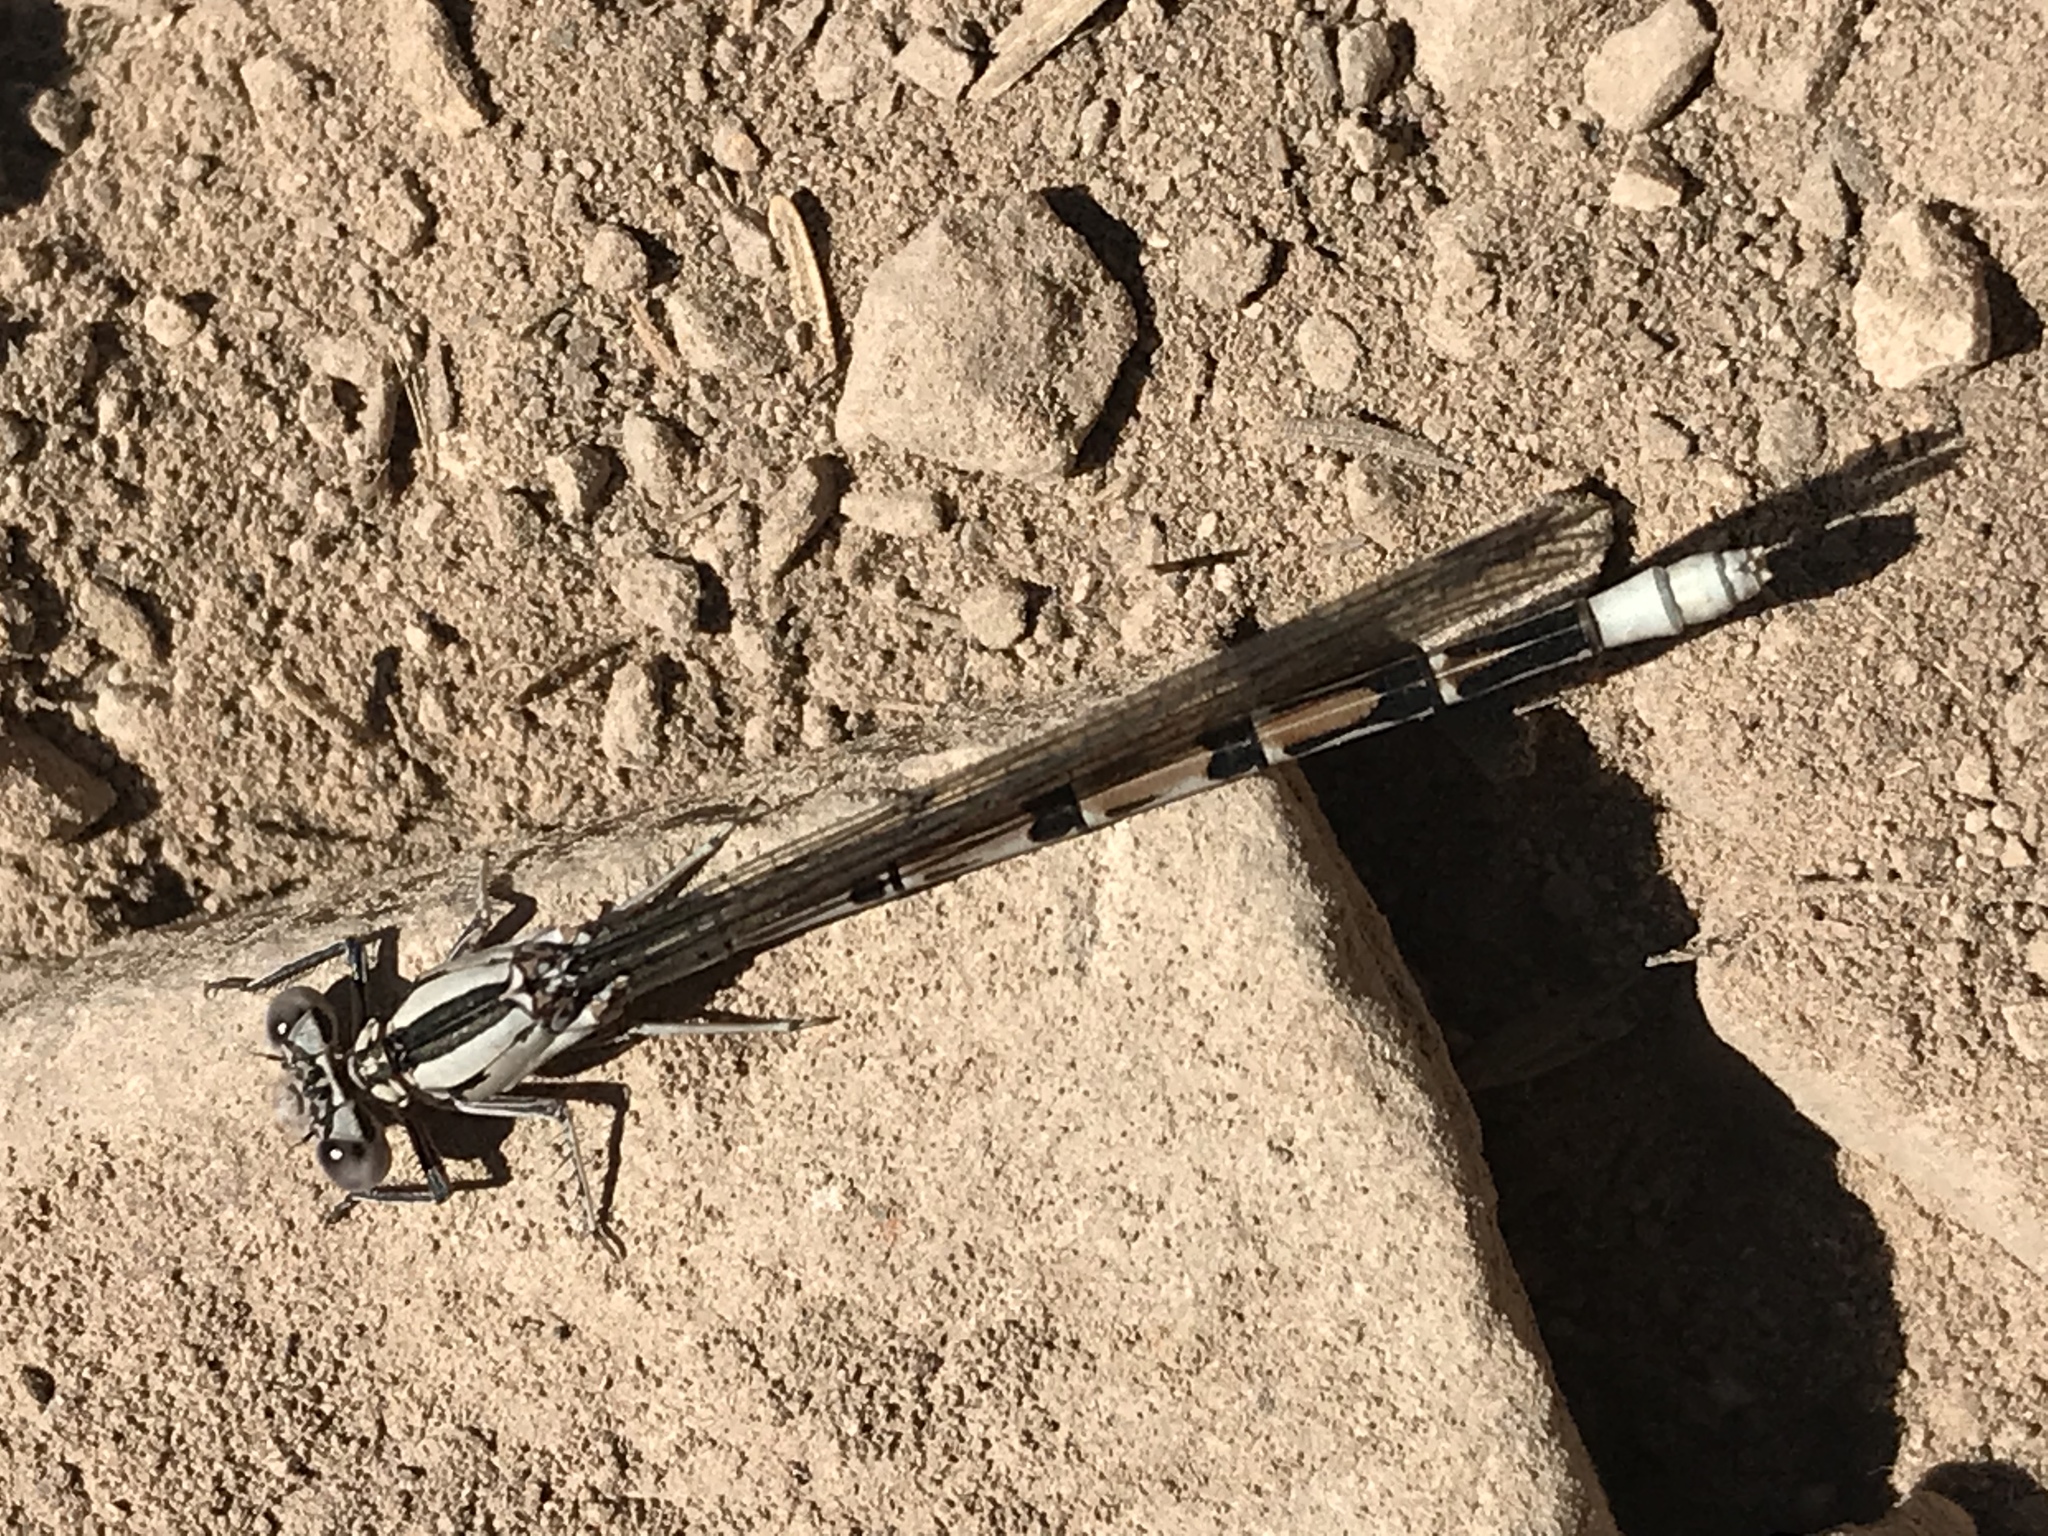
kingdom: Animalia
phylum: Arthropoda
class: Insecta
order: Odonata
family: Coenagrionidae
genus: Argia
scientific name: Argia vivida
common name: Vivid dancer
